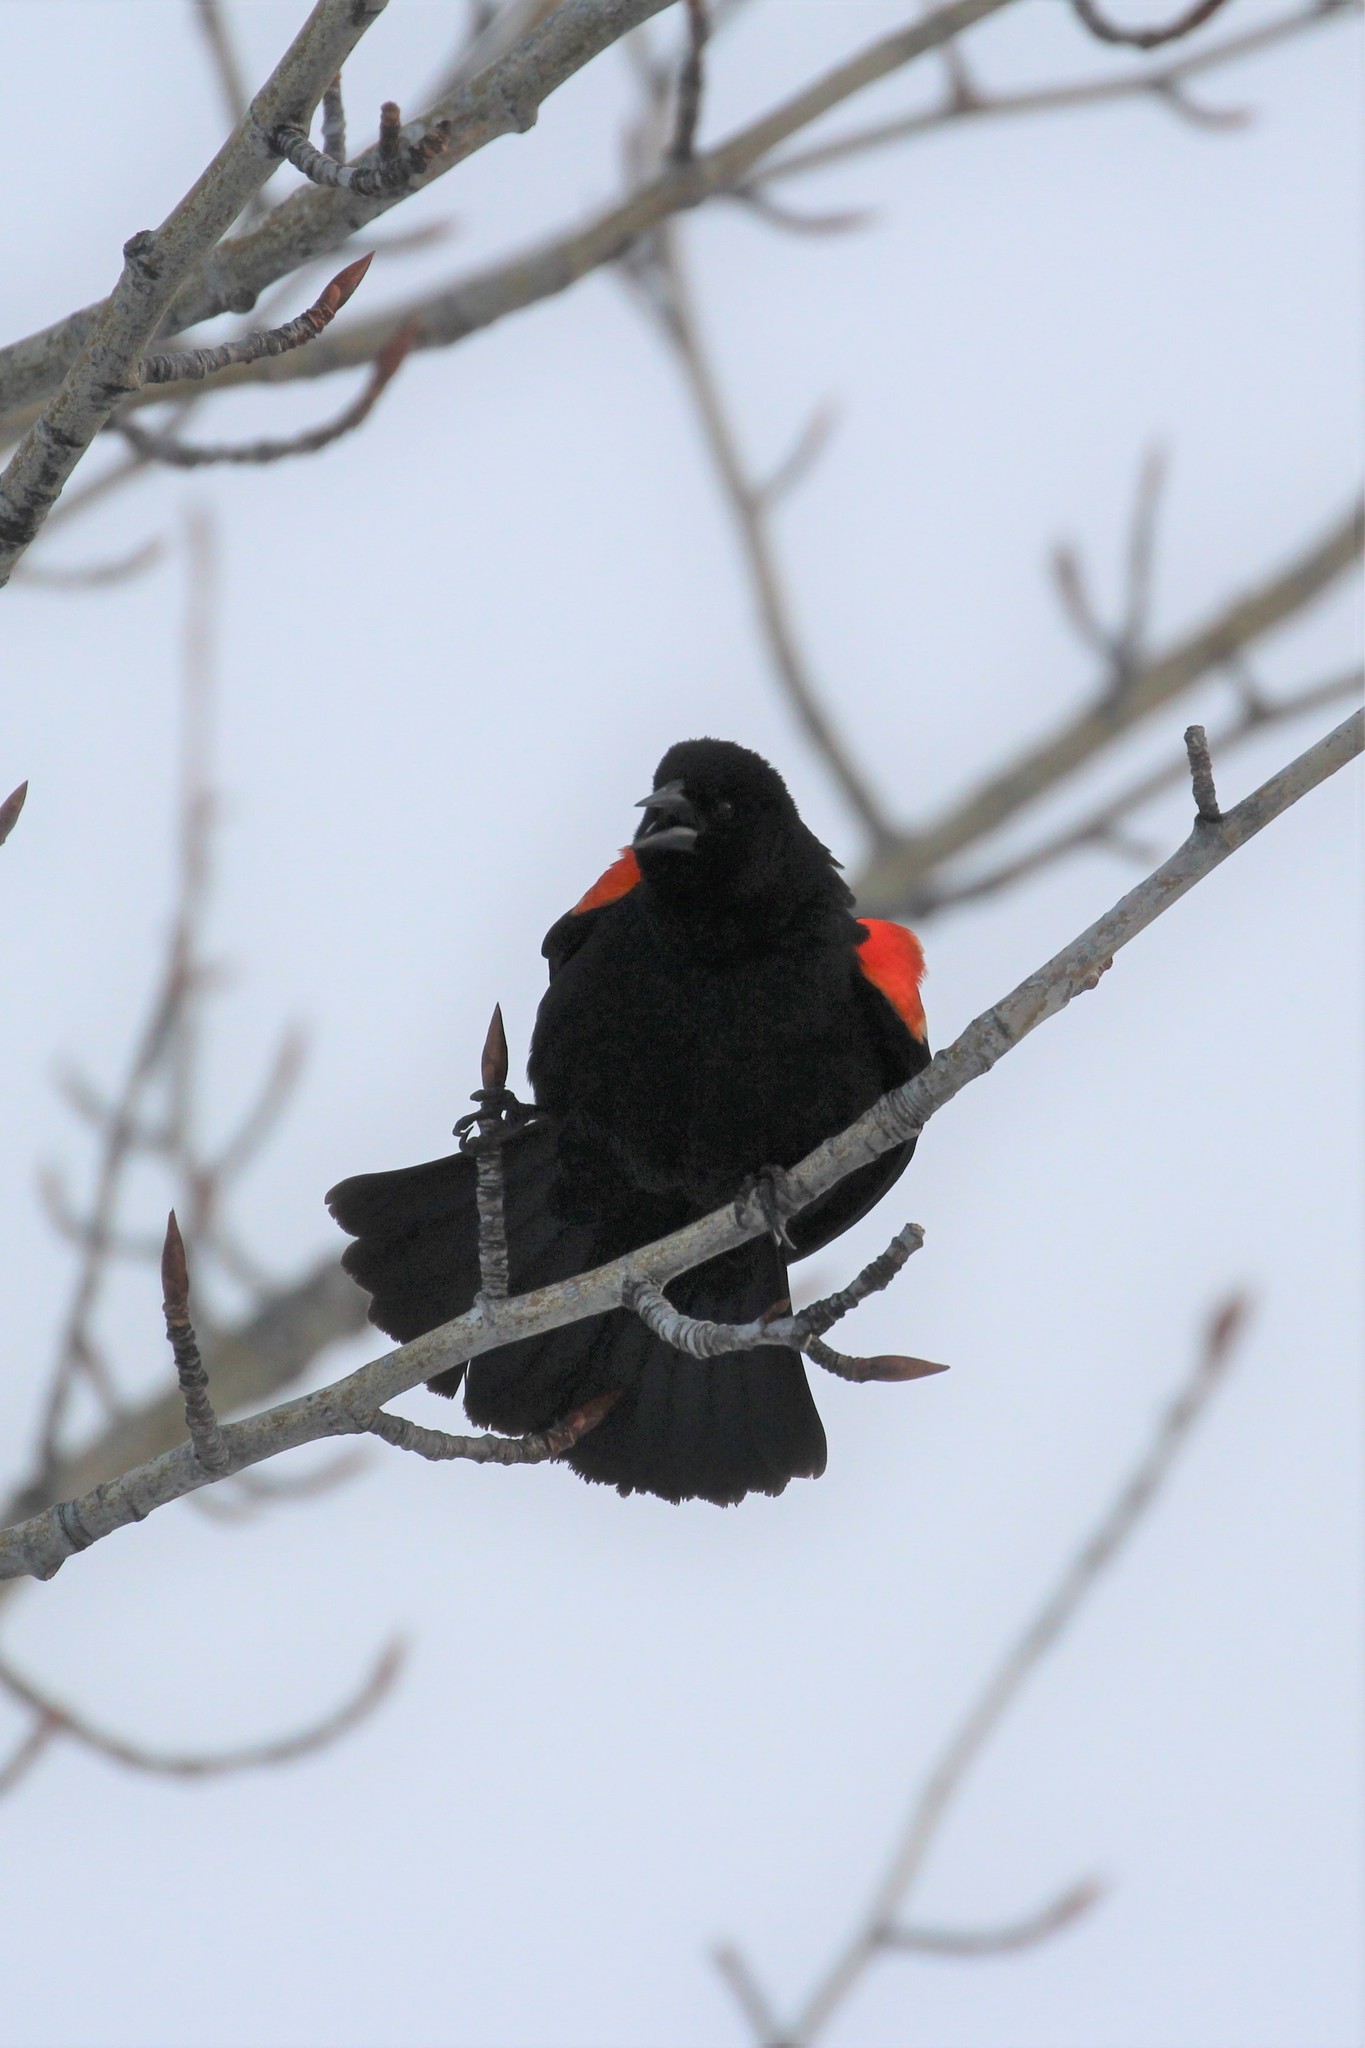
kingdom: Animalia
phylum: Chordata
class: Aves
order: Passeriformes
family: Icteridae
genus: Agelaius
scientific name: Agelaius phoeniceus
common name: Red-winged blackbird
